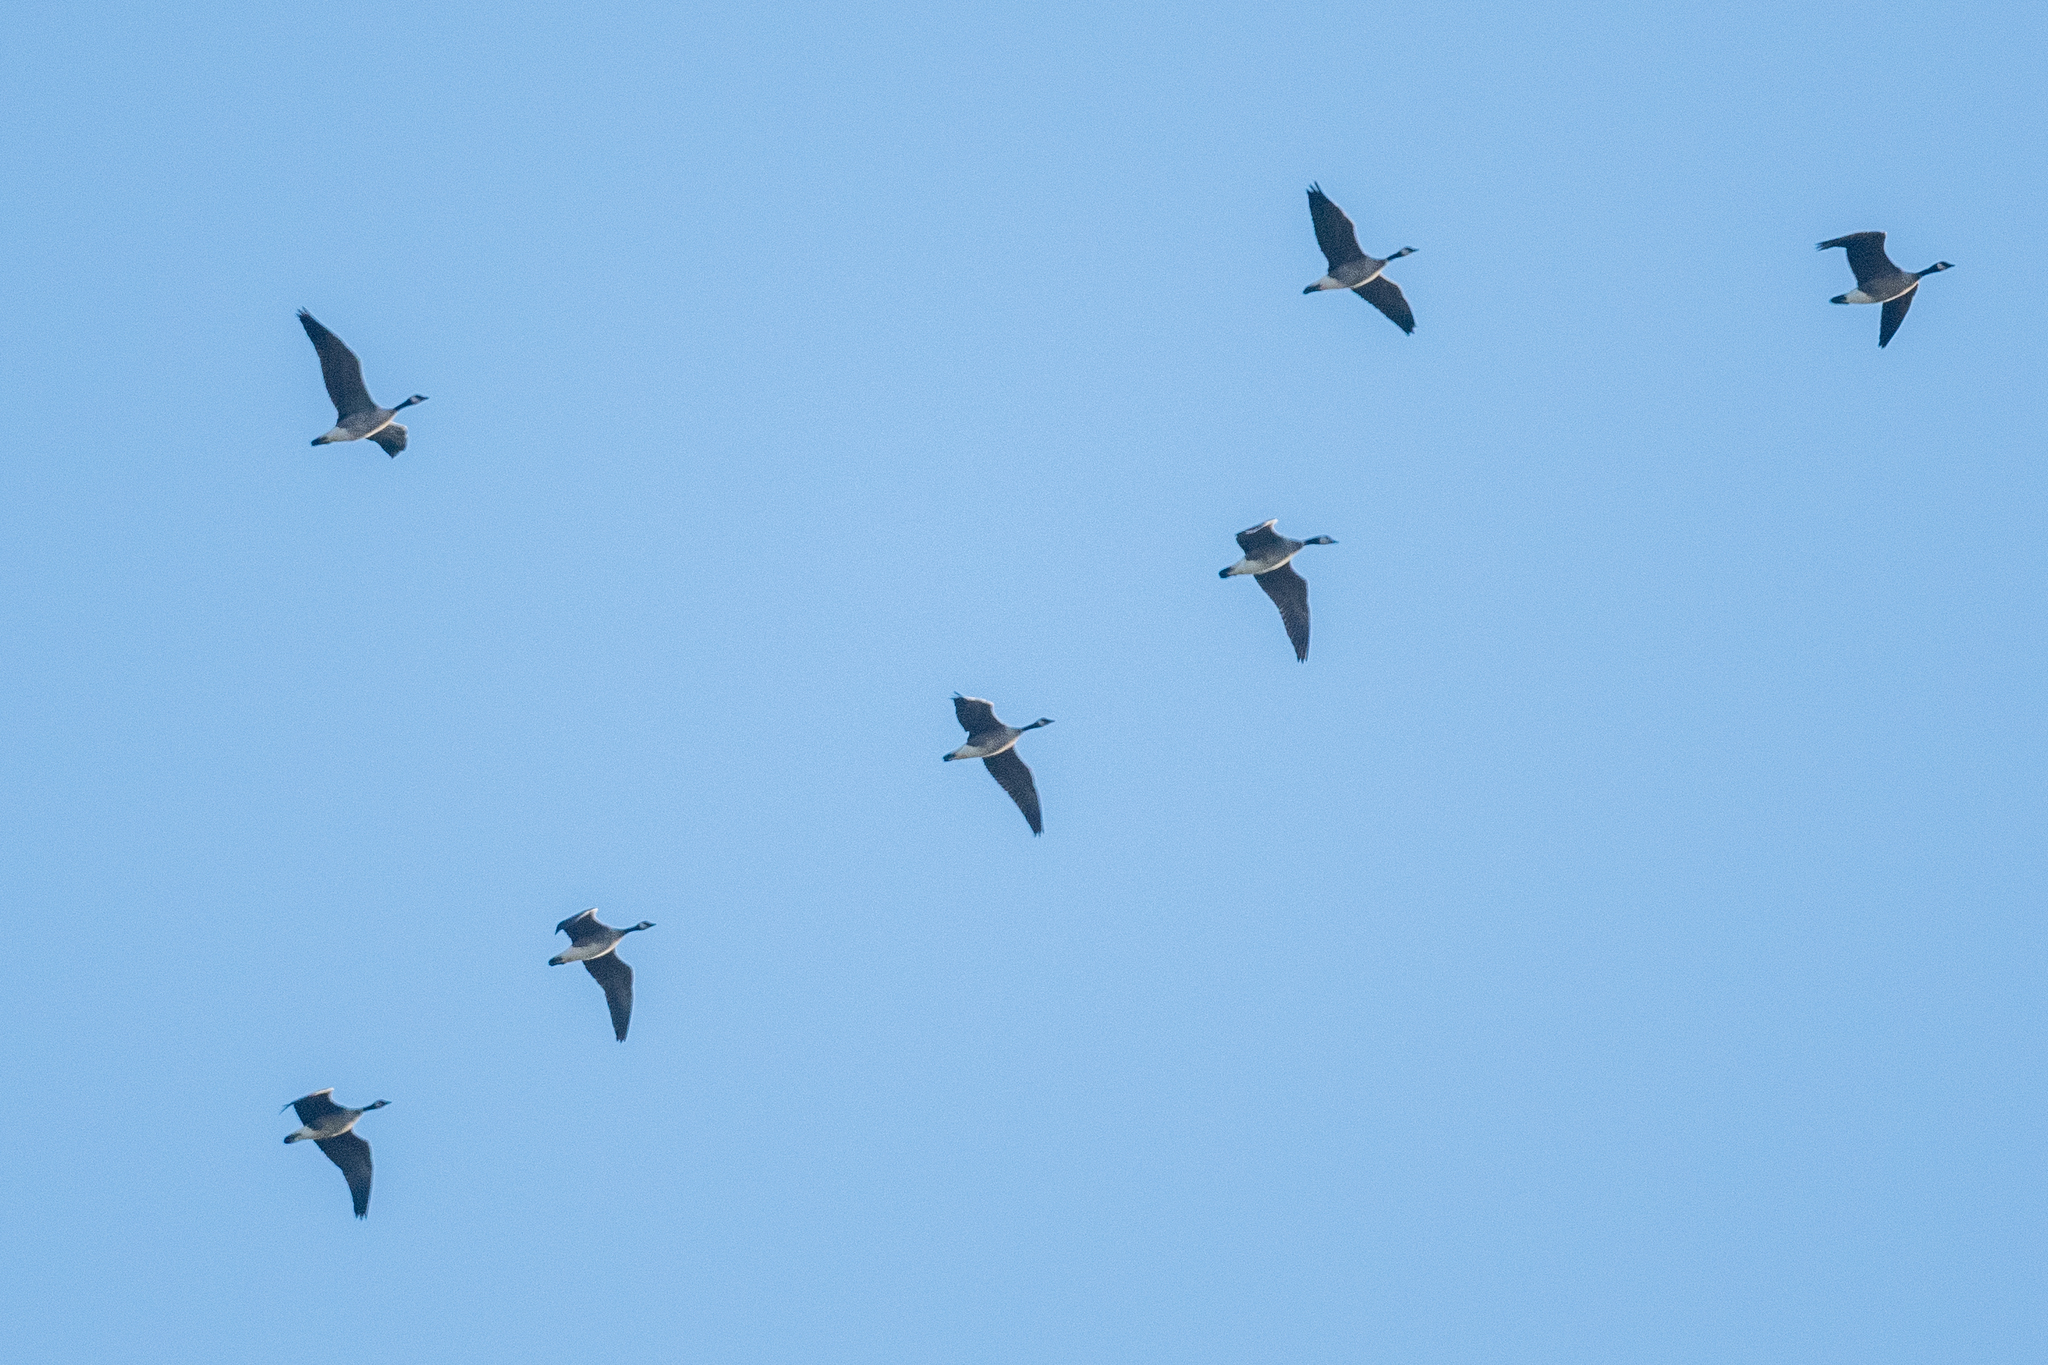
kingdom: Animalia
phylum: Chordata
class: Aves
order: Anseriformes
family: Anatidae
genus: Branta
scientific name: Branta canadensis
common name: Canada goose
